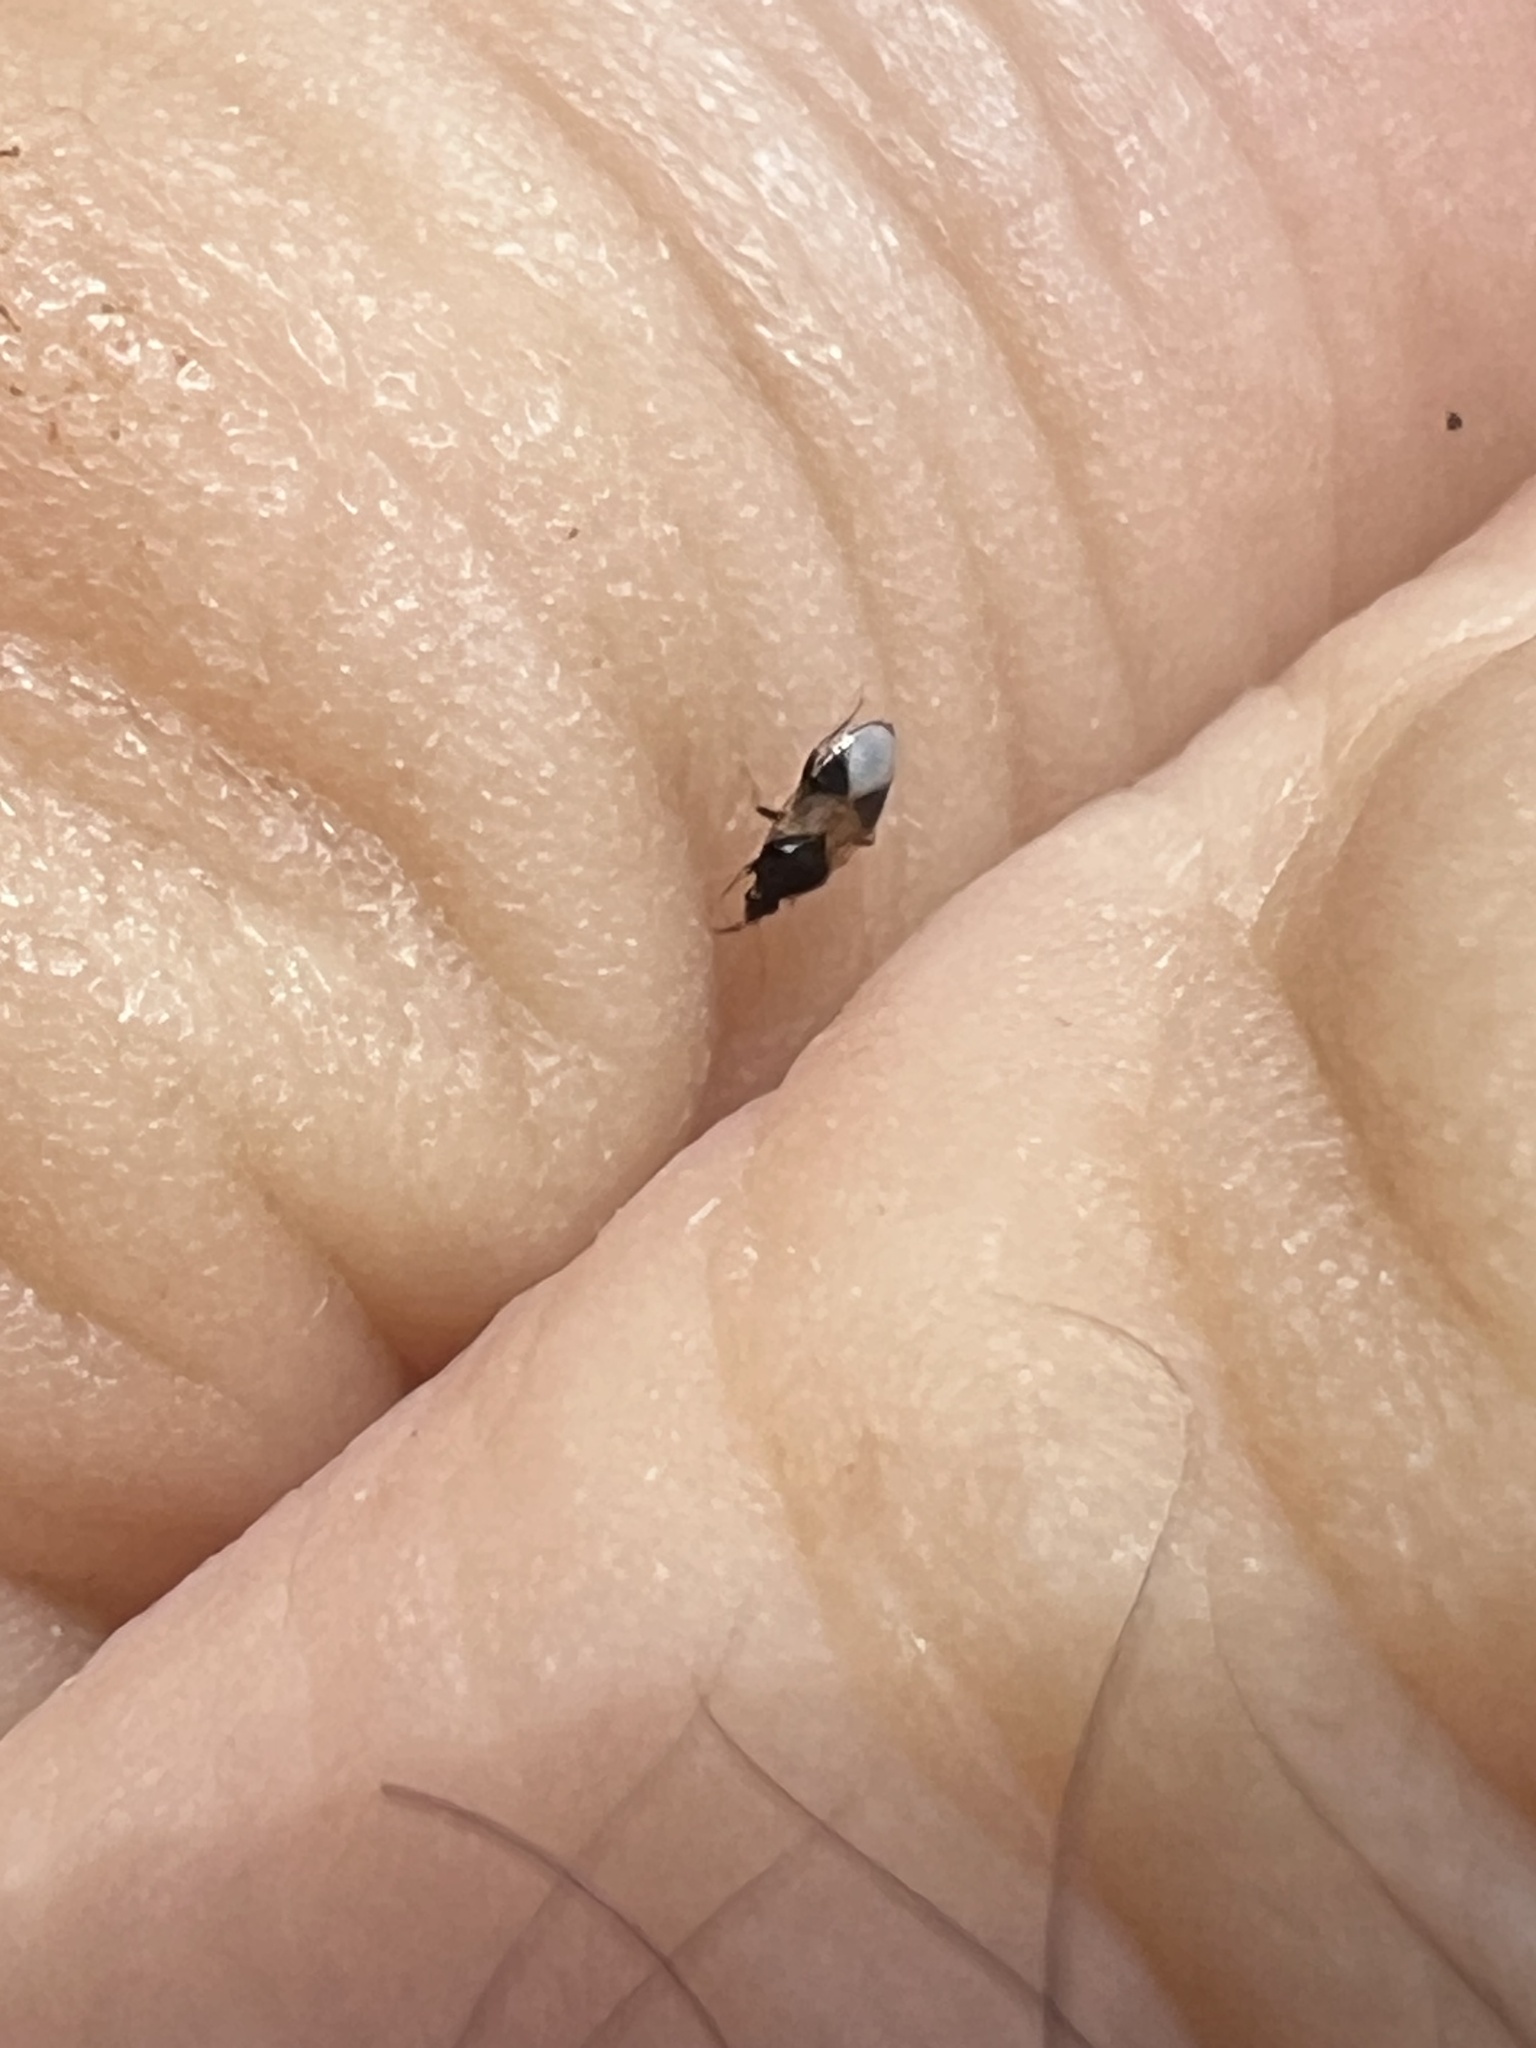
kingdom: Animalia
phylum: Arthropoda
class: Insecta
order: Hemiptera
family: Anthocoridae
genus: Orius
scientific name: Orius insidiosus
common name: Insidious flower bug
